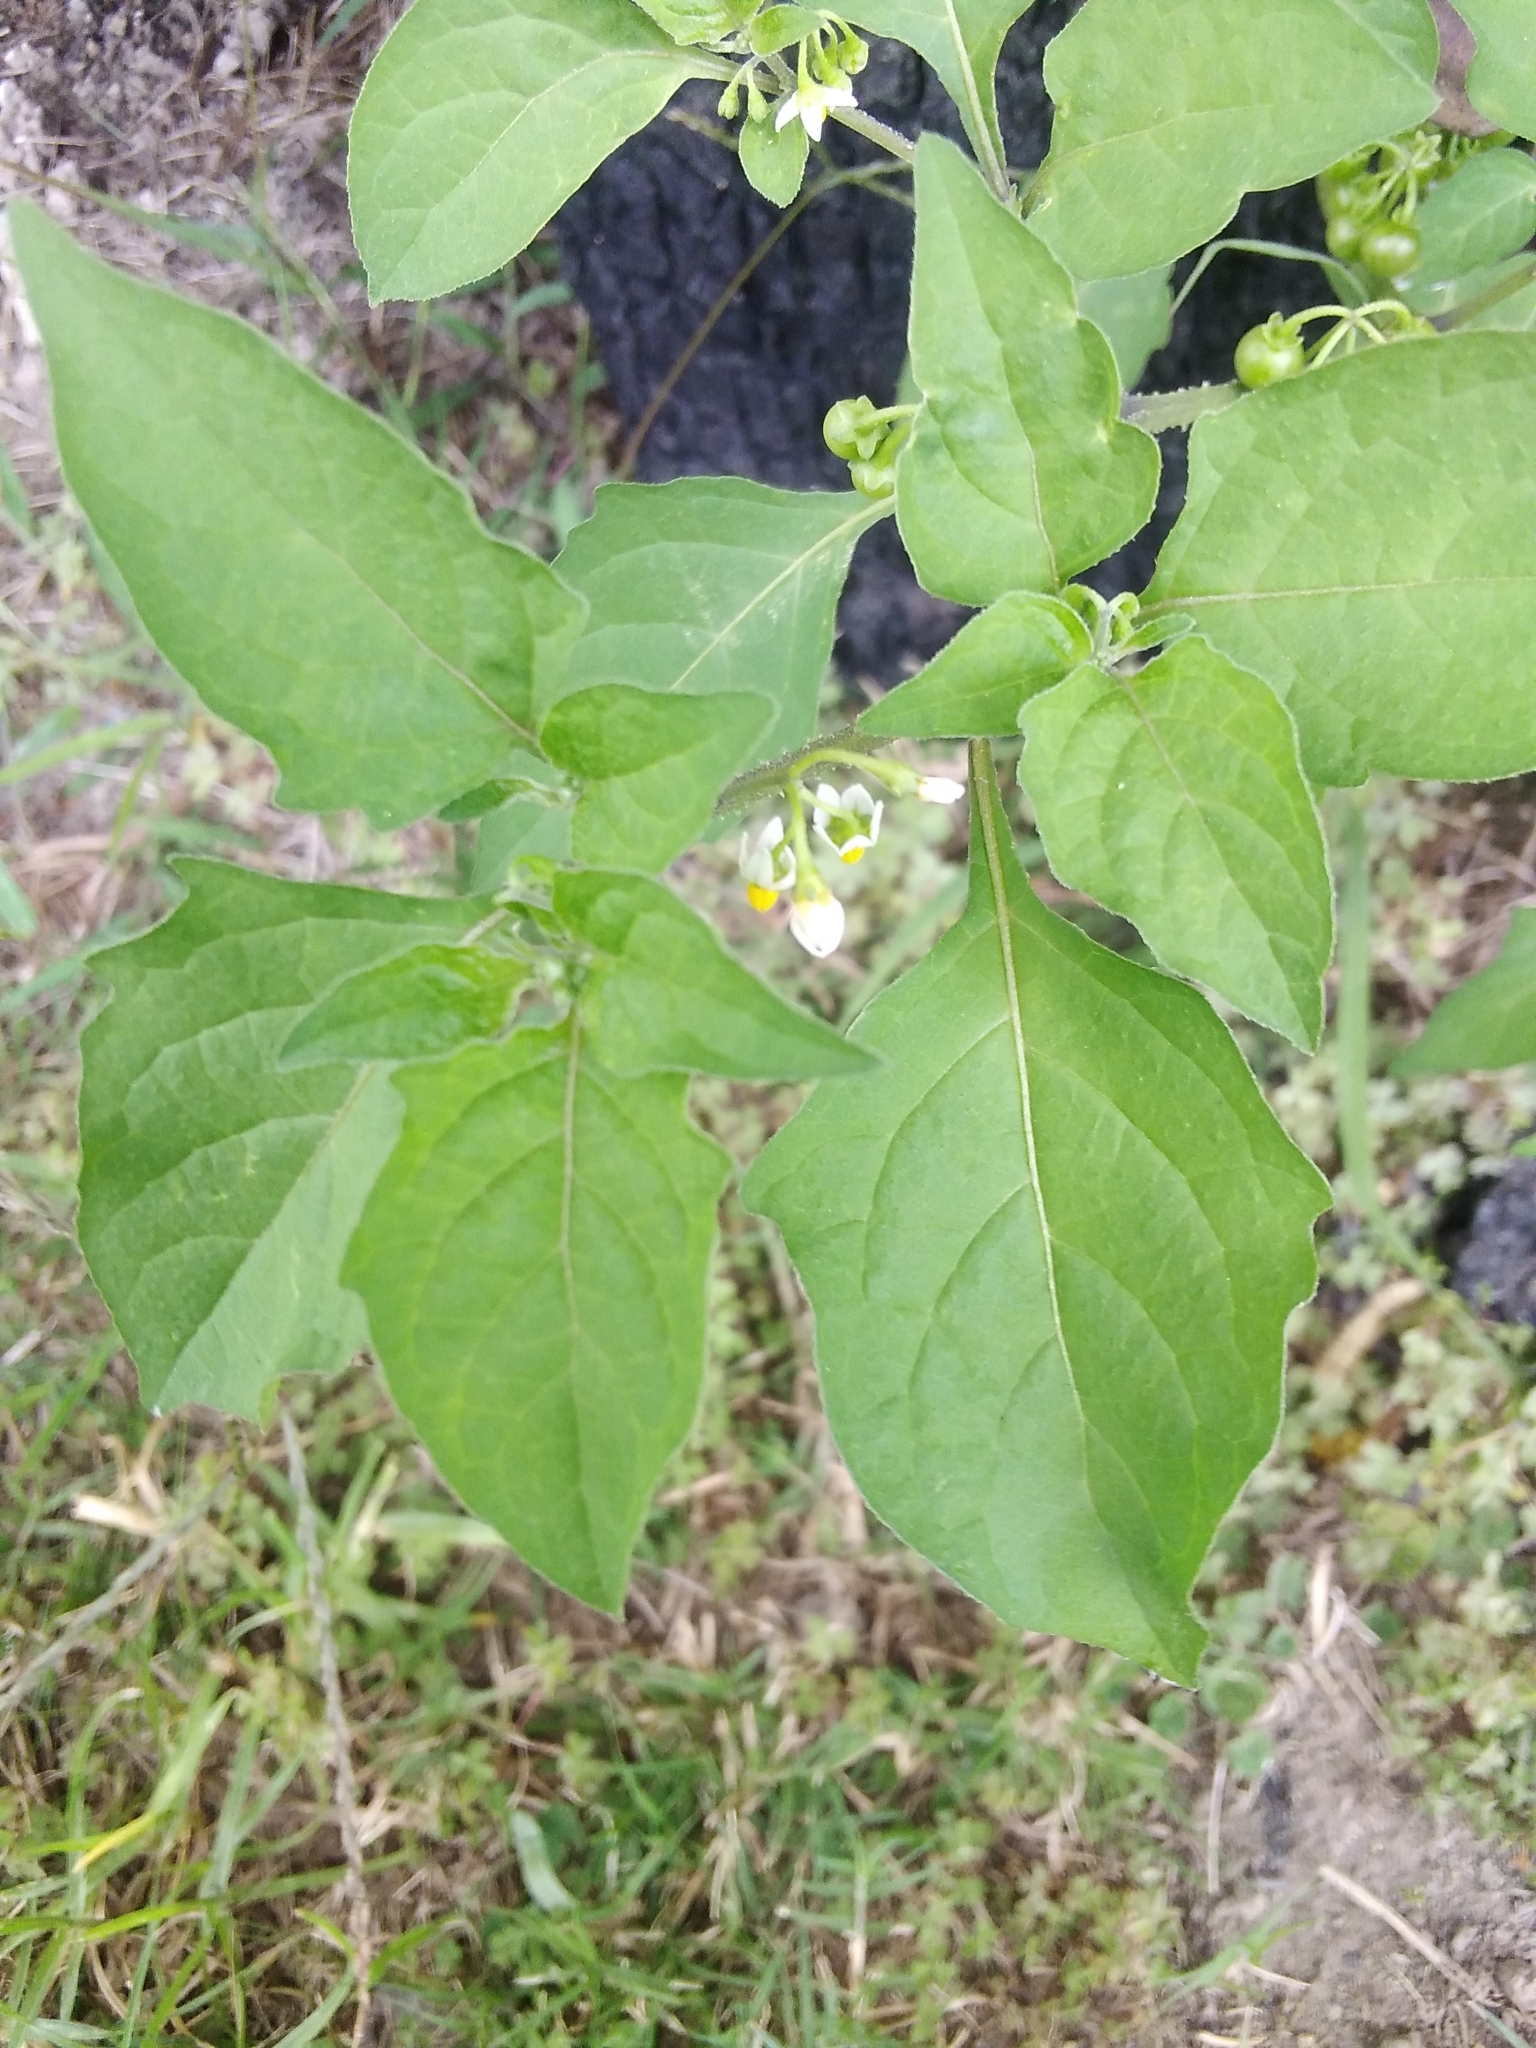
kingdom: Plantae
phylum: Tracheophyta
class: Magnoliopsida
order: Solanales
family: Solanaceae
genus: Solanum
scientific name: Solanum americanum
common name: American black nightshade
